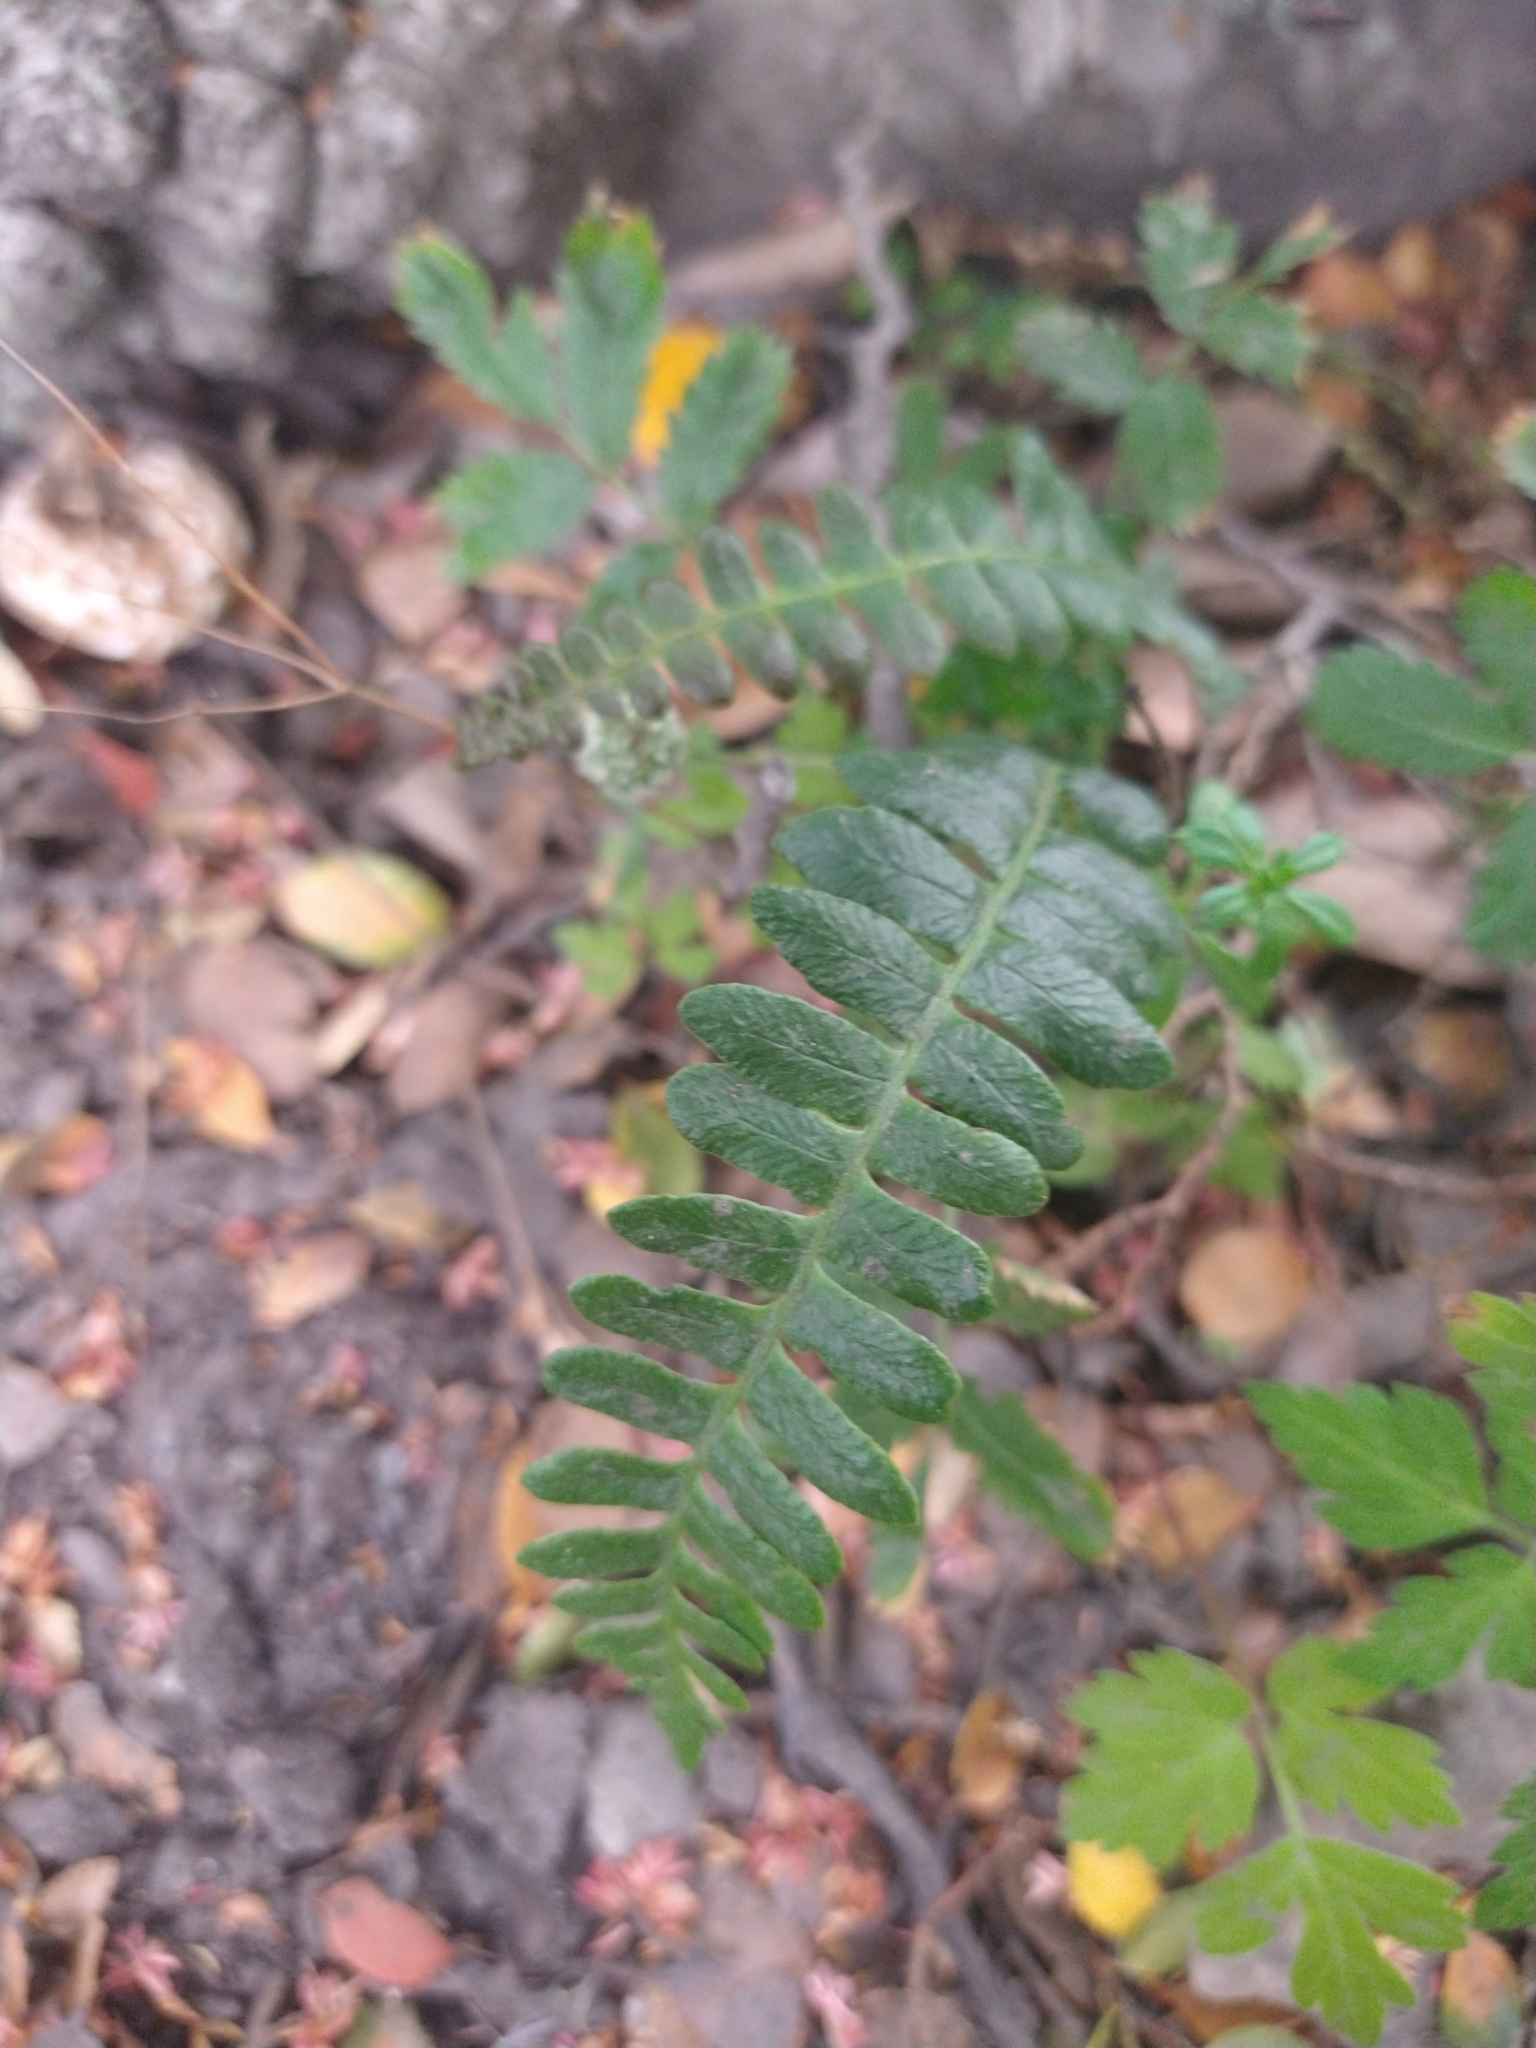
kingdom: Plantae
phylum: Tracheophyta
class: Polypodiopsida
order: Polypodiales
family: Blechnaceae
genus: Austroblechnum
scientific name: Austroblechnum penna-marina
